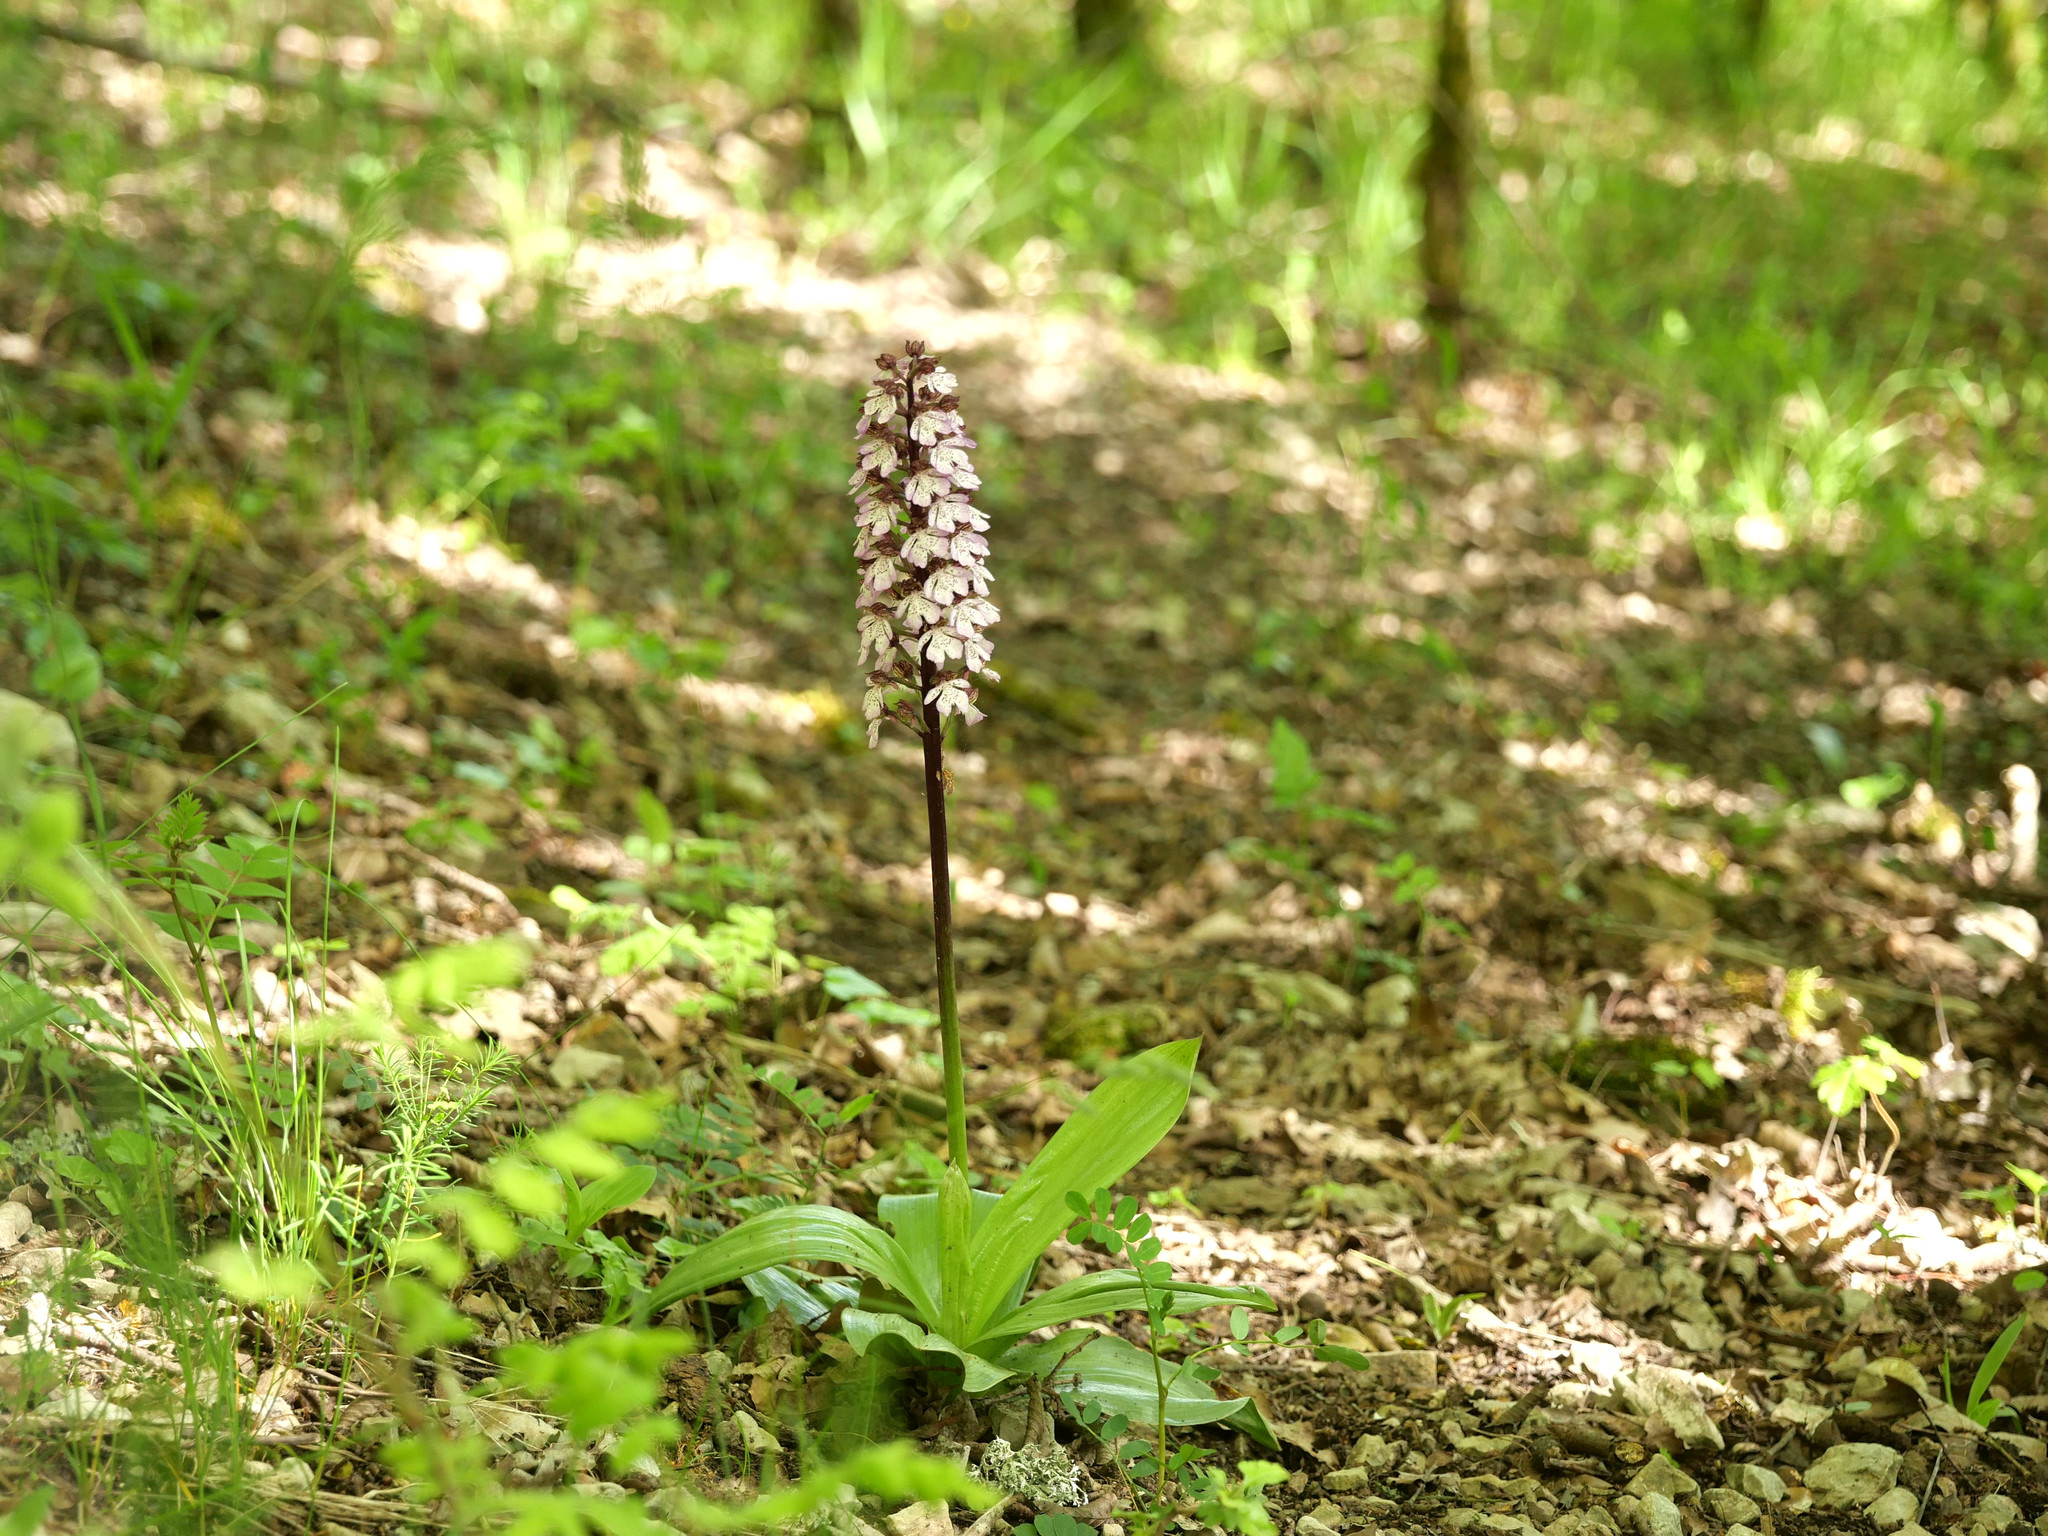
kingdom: Plantae
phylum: Tracheophyta
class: Liliopsida
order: Asparagales
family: Orchidaceae
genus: Orchis
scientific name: Orchis purpurea
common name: Lady orchid
